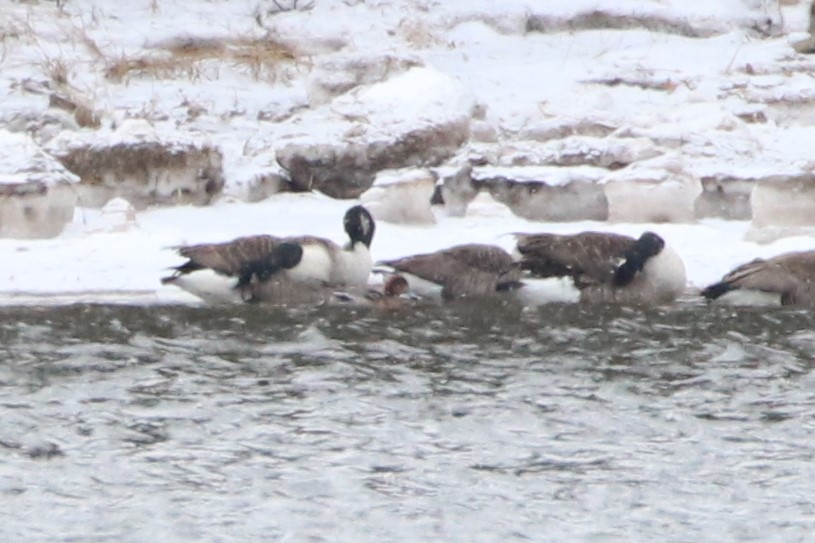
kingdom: Animalia
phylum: Chordata
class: Aves
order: Anseriformes
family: Anatidae
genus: Branta
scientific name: Branta canadensis
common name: Canada goose
